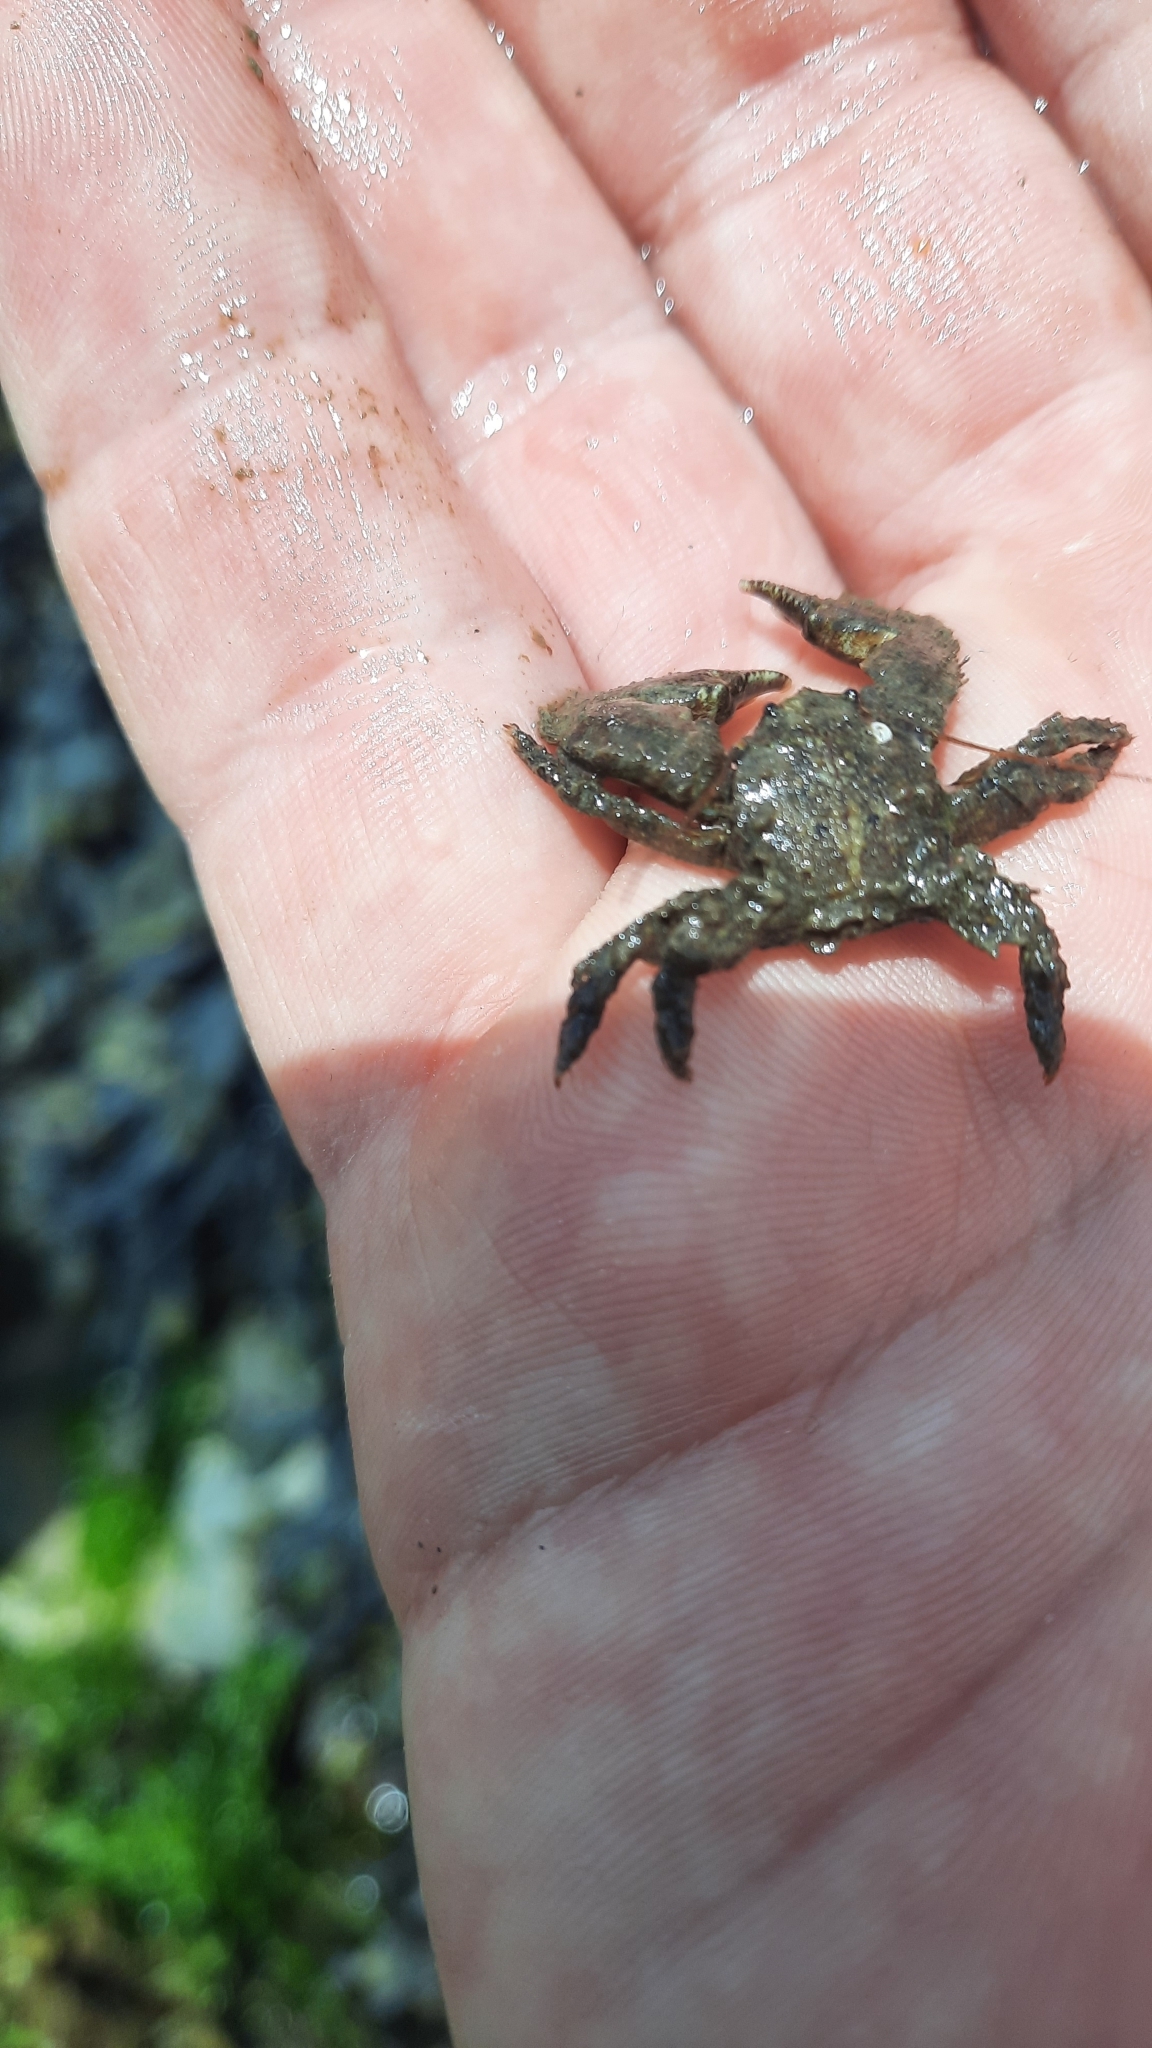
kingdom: Animalia
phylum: Arthropoda
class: Malacostraca
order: Decapoda
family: Porcellanidae
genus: Porcellana
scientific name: Porcellana platycheles
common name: Porcelain crab
